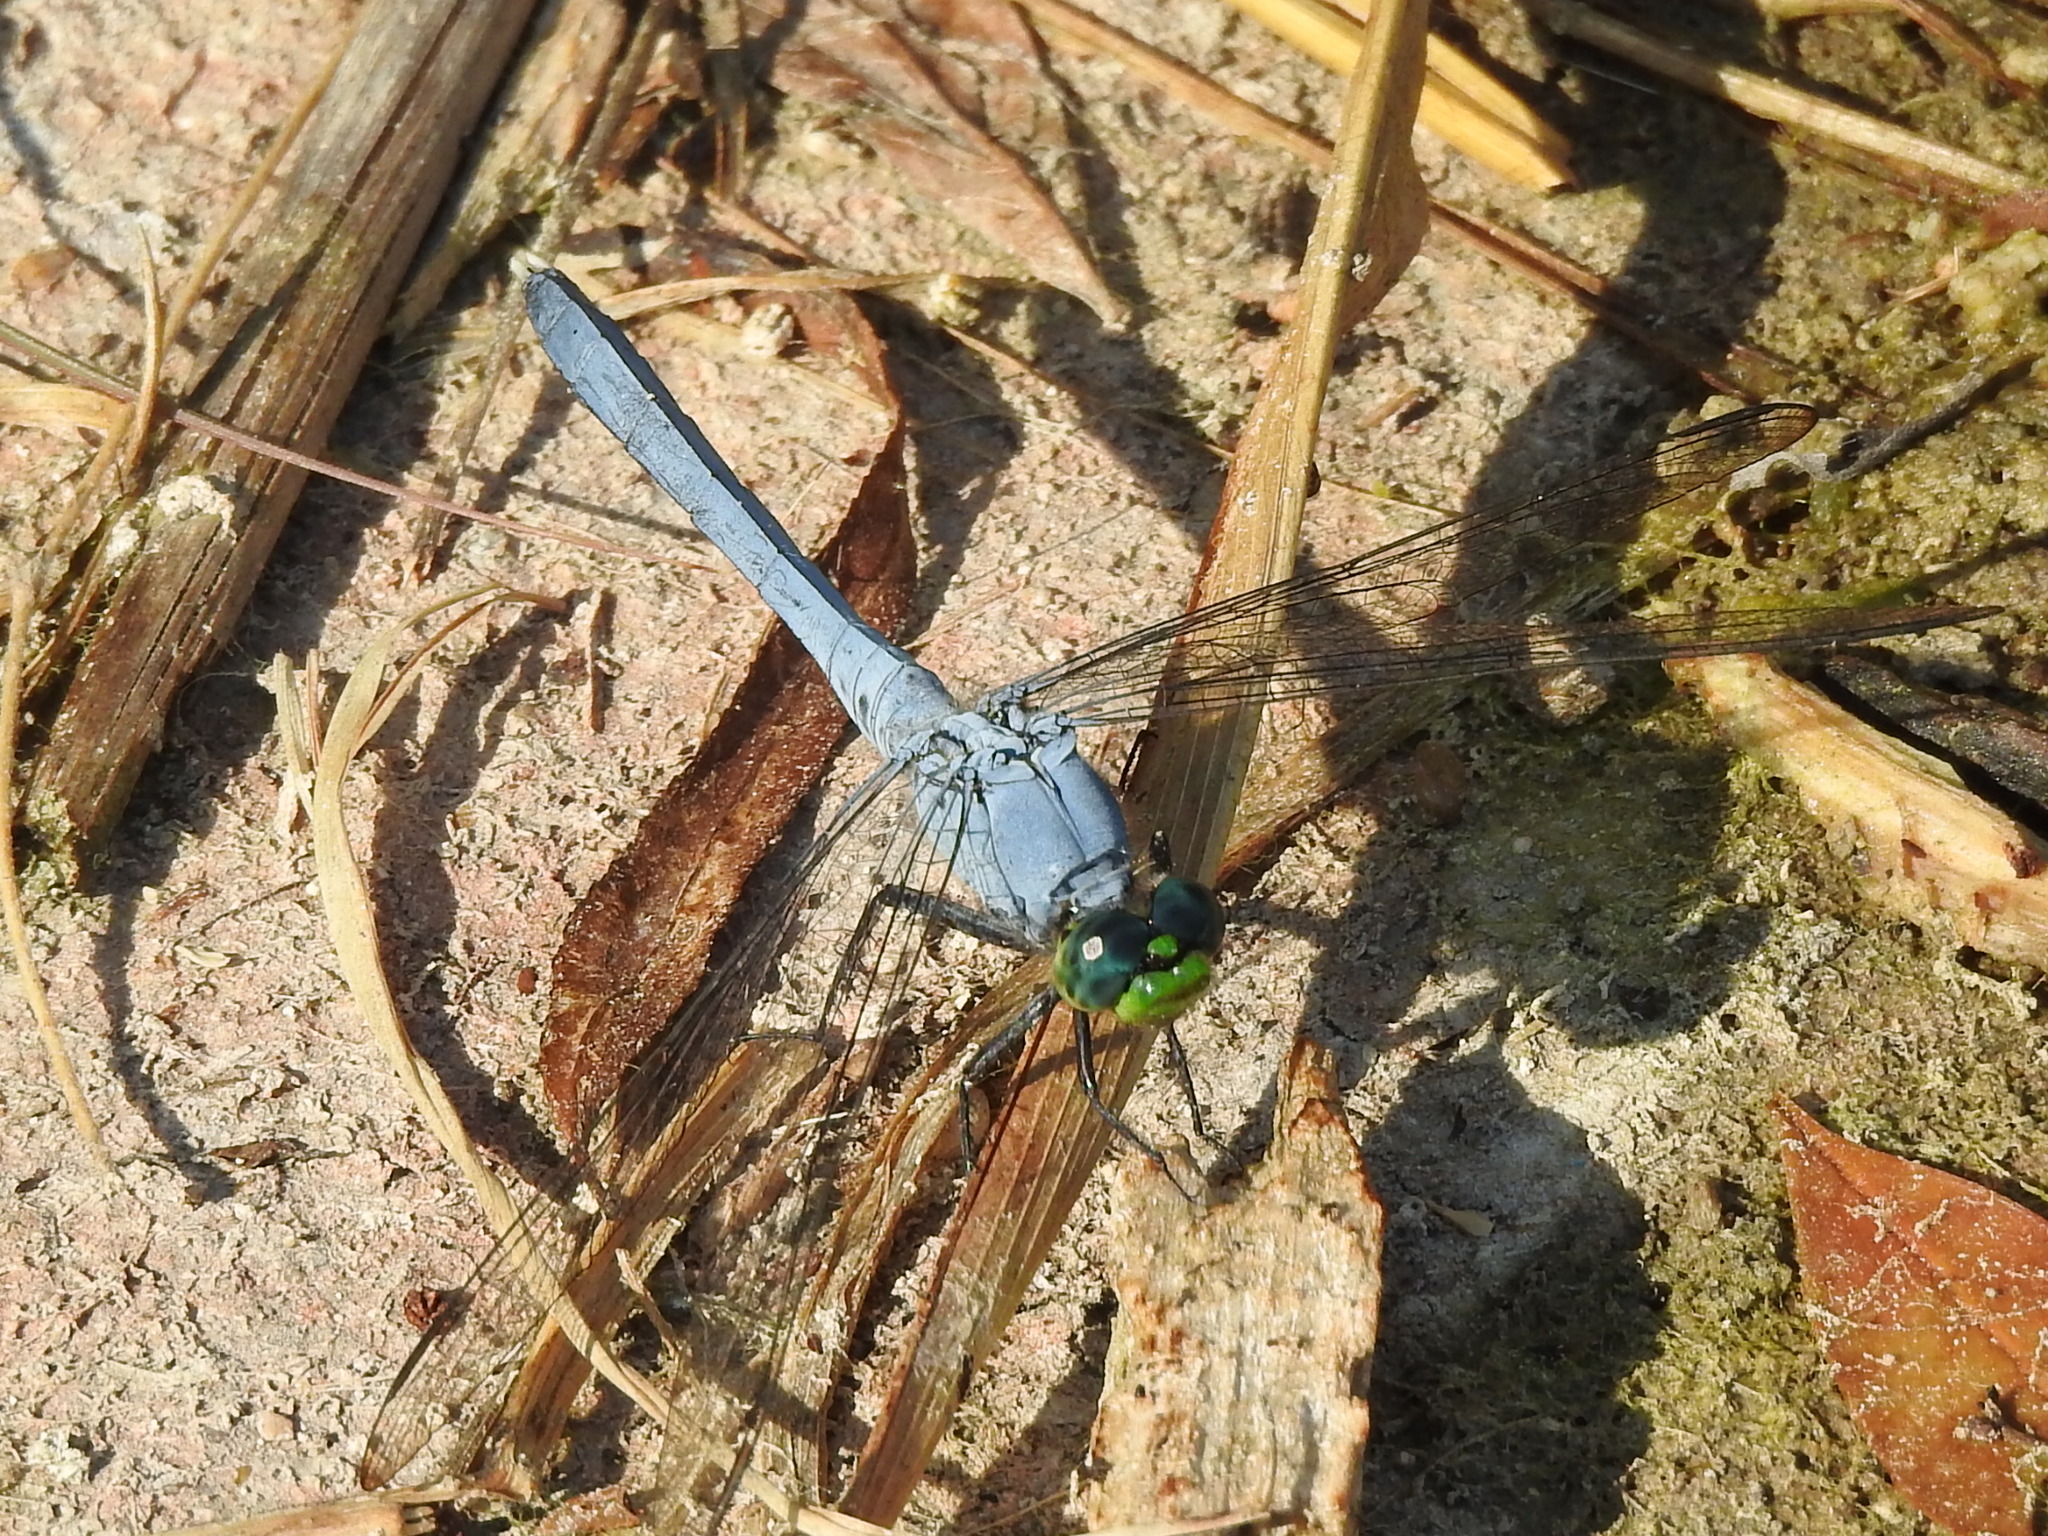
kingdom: Animalia
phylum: Arthropoda
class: Insecta
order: Odonata
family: Libellulidae
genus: Erythemis
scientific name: Erythemis simplicicollis
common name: Eastern pondhawk
